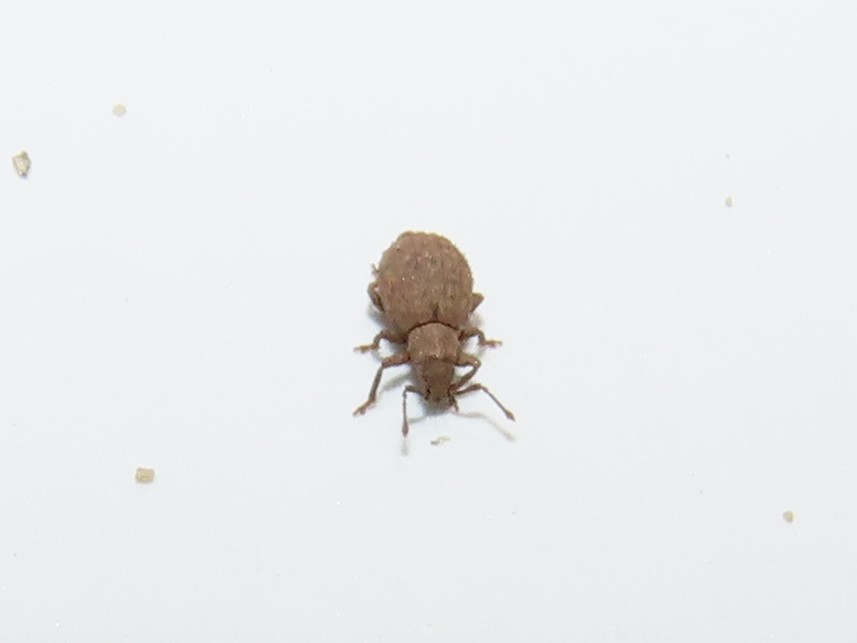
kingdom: Animalia
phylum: Arthropoda
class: Insecta
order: Coleoptera
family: Curculionidae
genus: Myosides
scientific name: Myosides seriehispidus
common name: Broadnosed weevil
